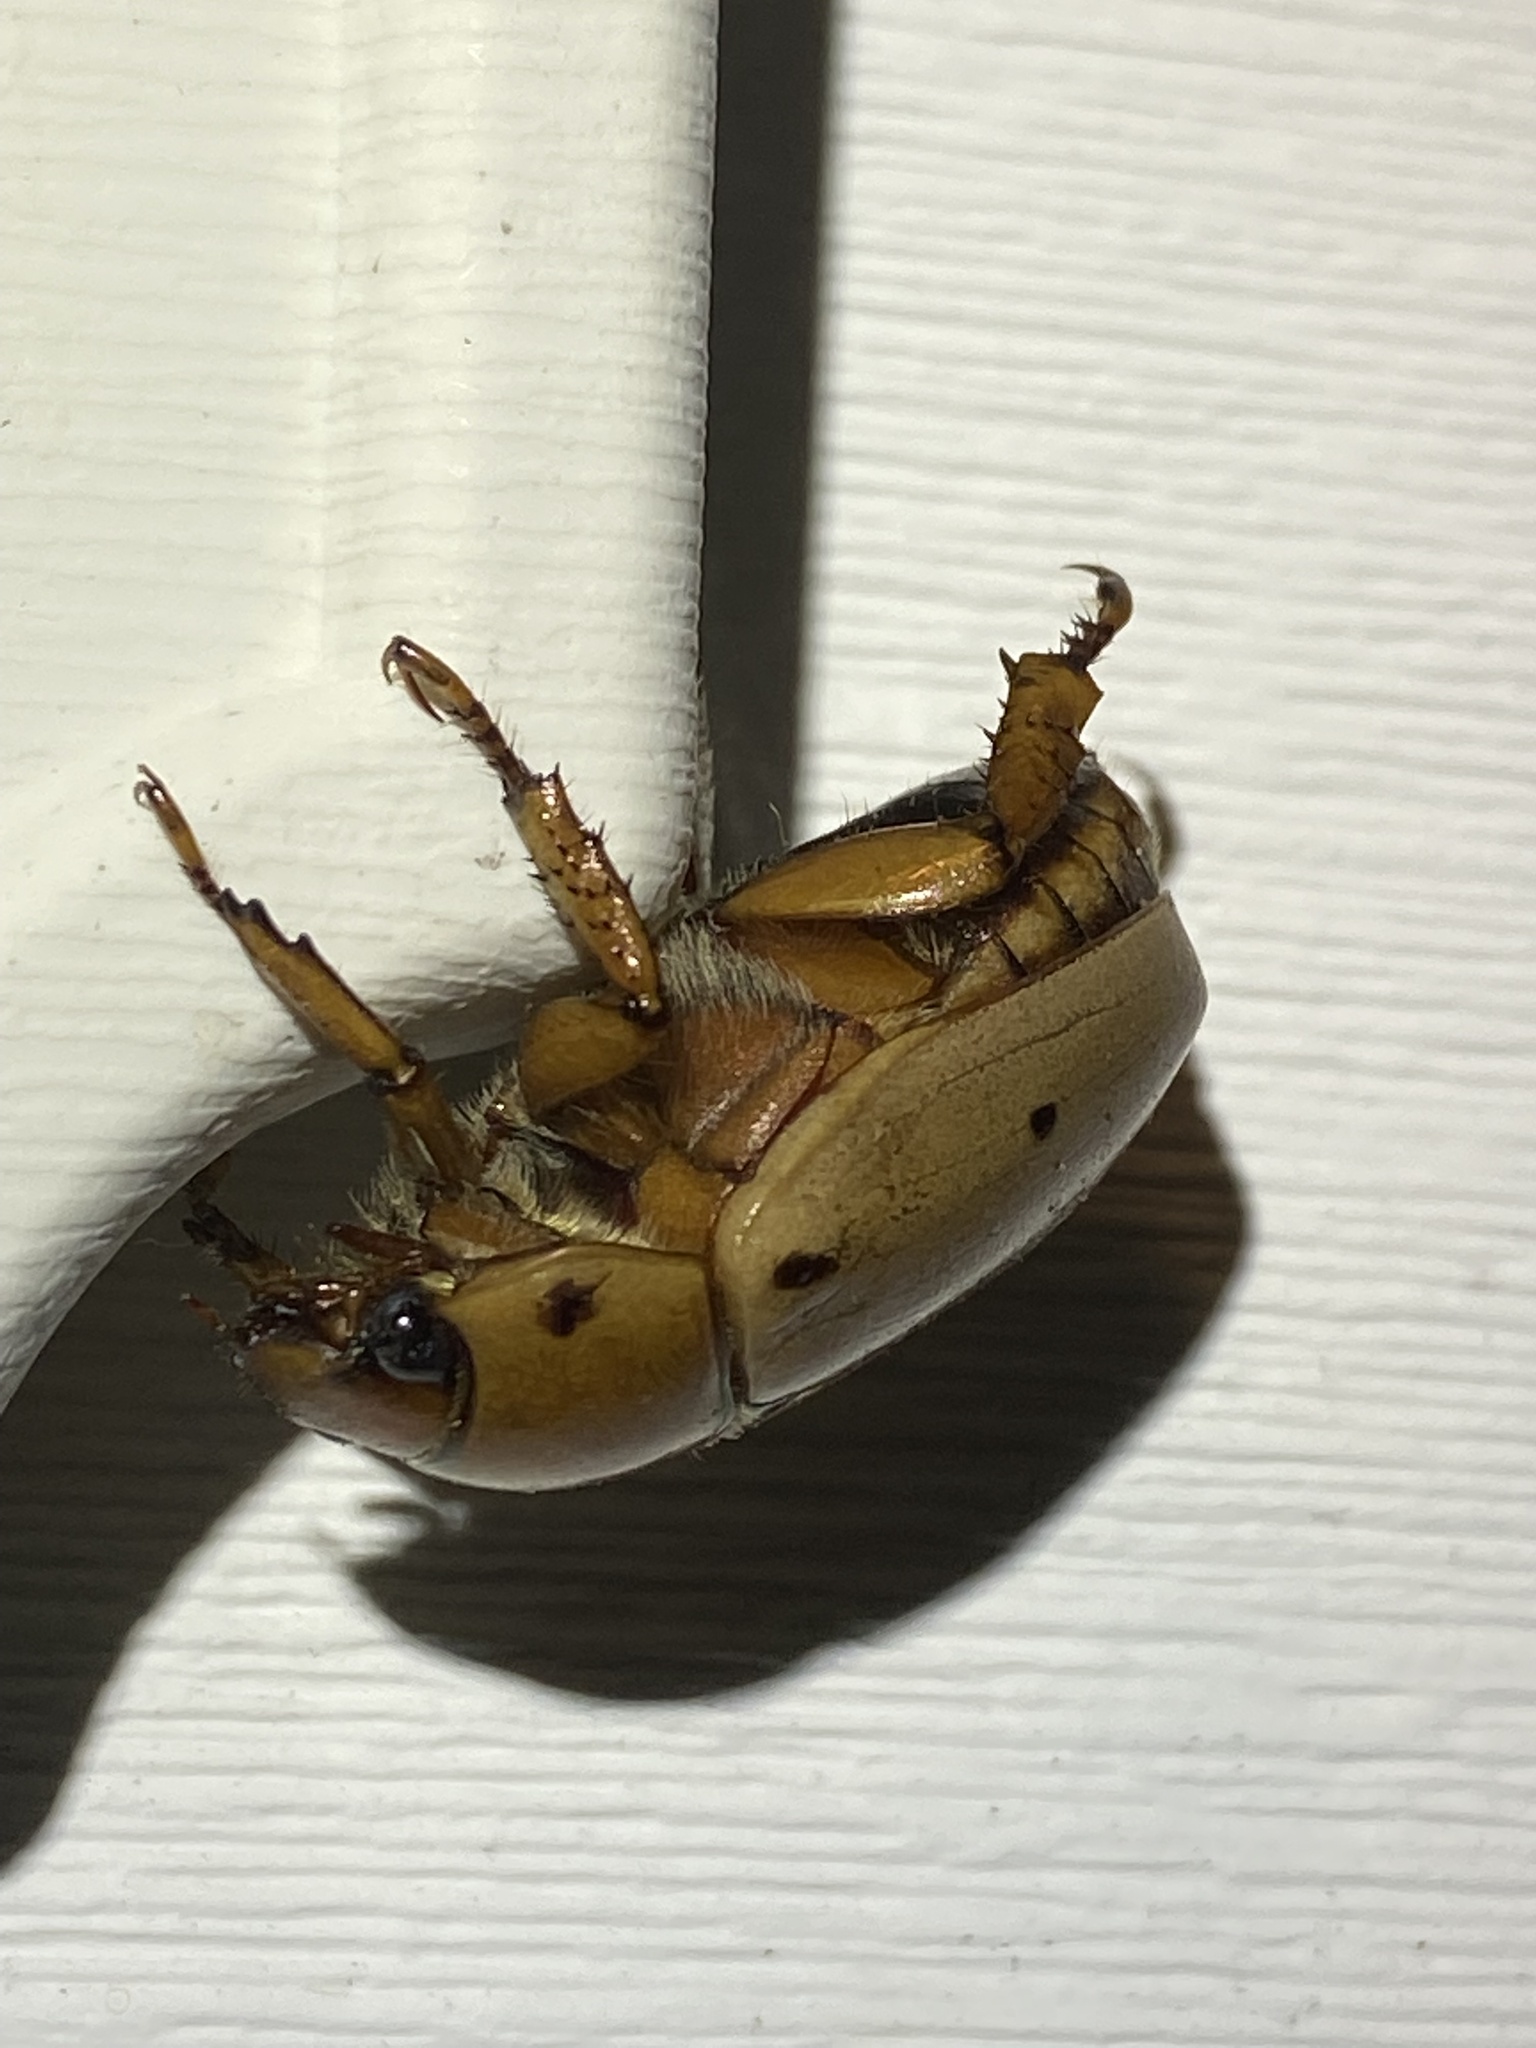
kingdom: Animalia
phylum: Arthropoda
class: Insecta
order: Coleoptera
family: Scarabaeidae
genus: Pelidnota
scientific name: Pelidnota punctata
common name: Grapevine beetle
